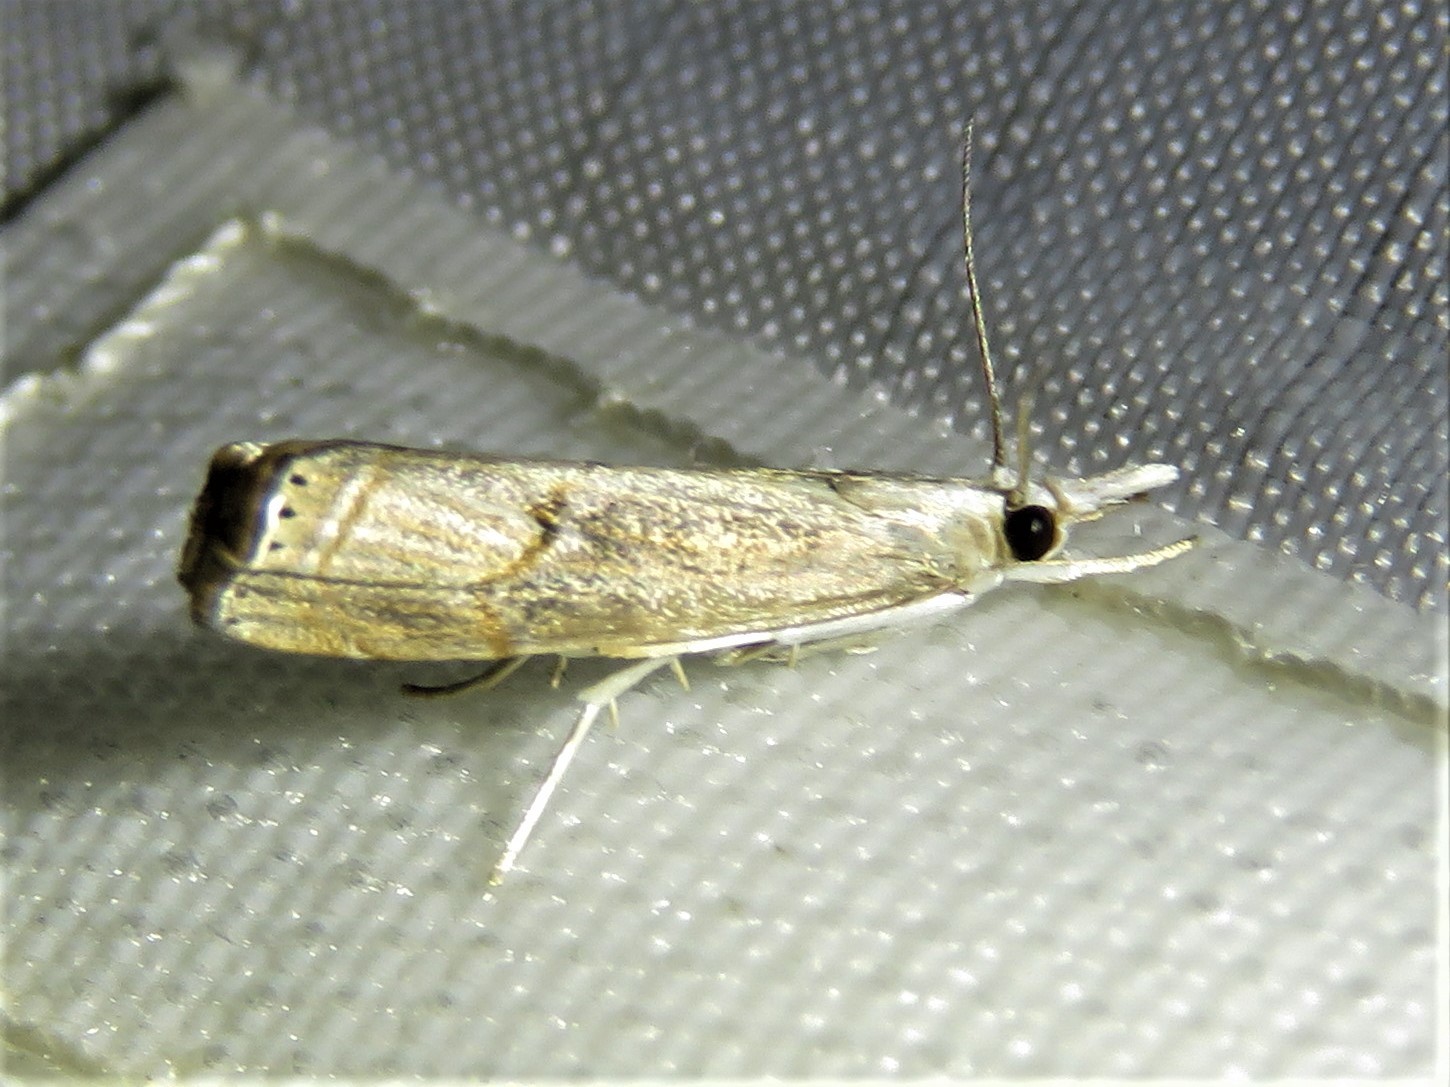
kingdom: Animalia
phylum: Arthropoda
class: Insecta
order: Lepidoptera
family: Crambidae
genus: Parapediasia
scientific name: Parapediasia teterellus
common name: Bluegrass webworm moth
